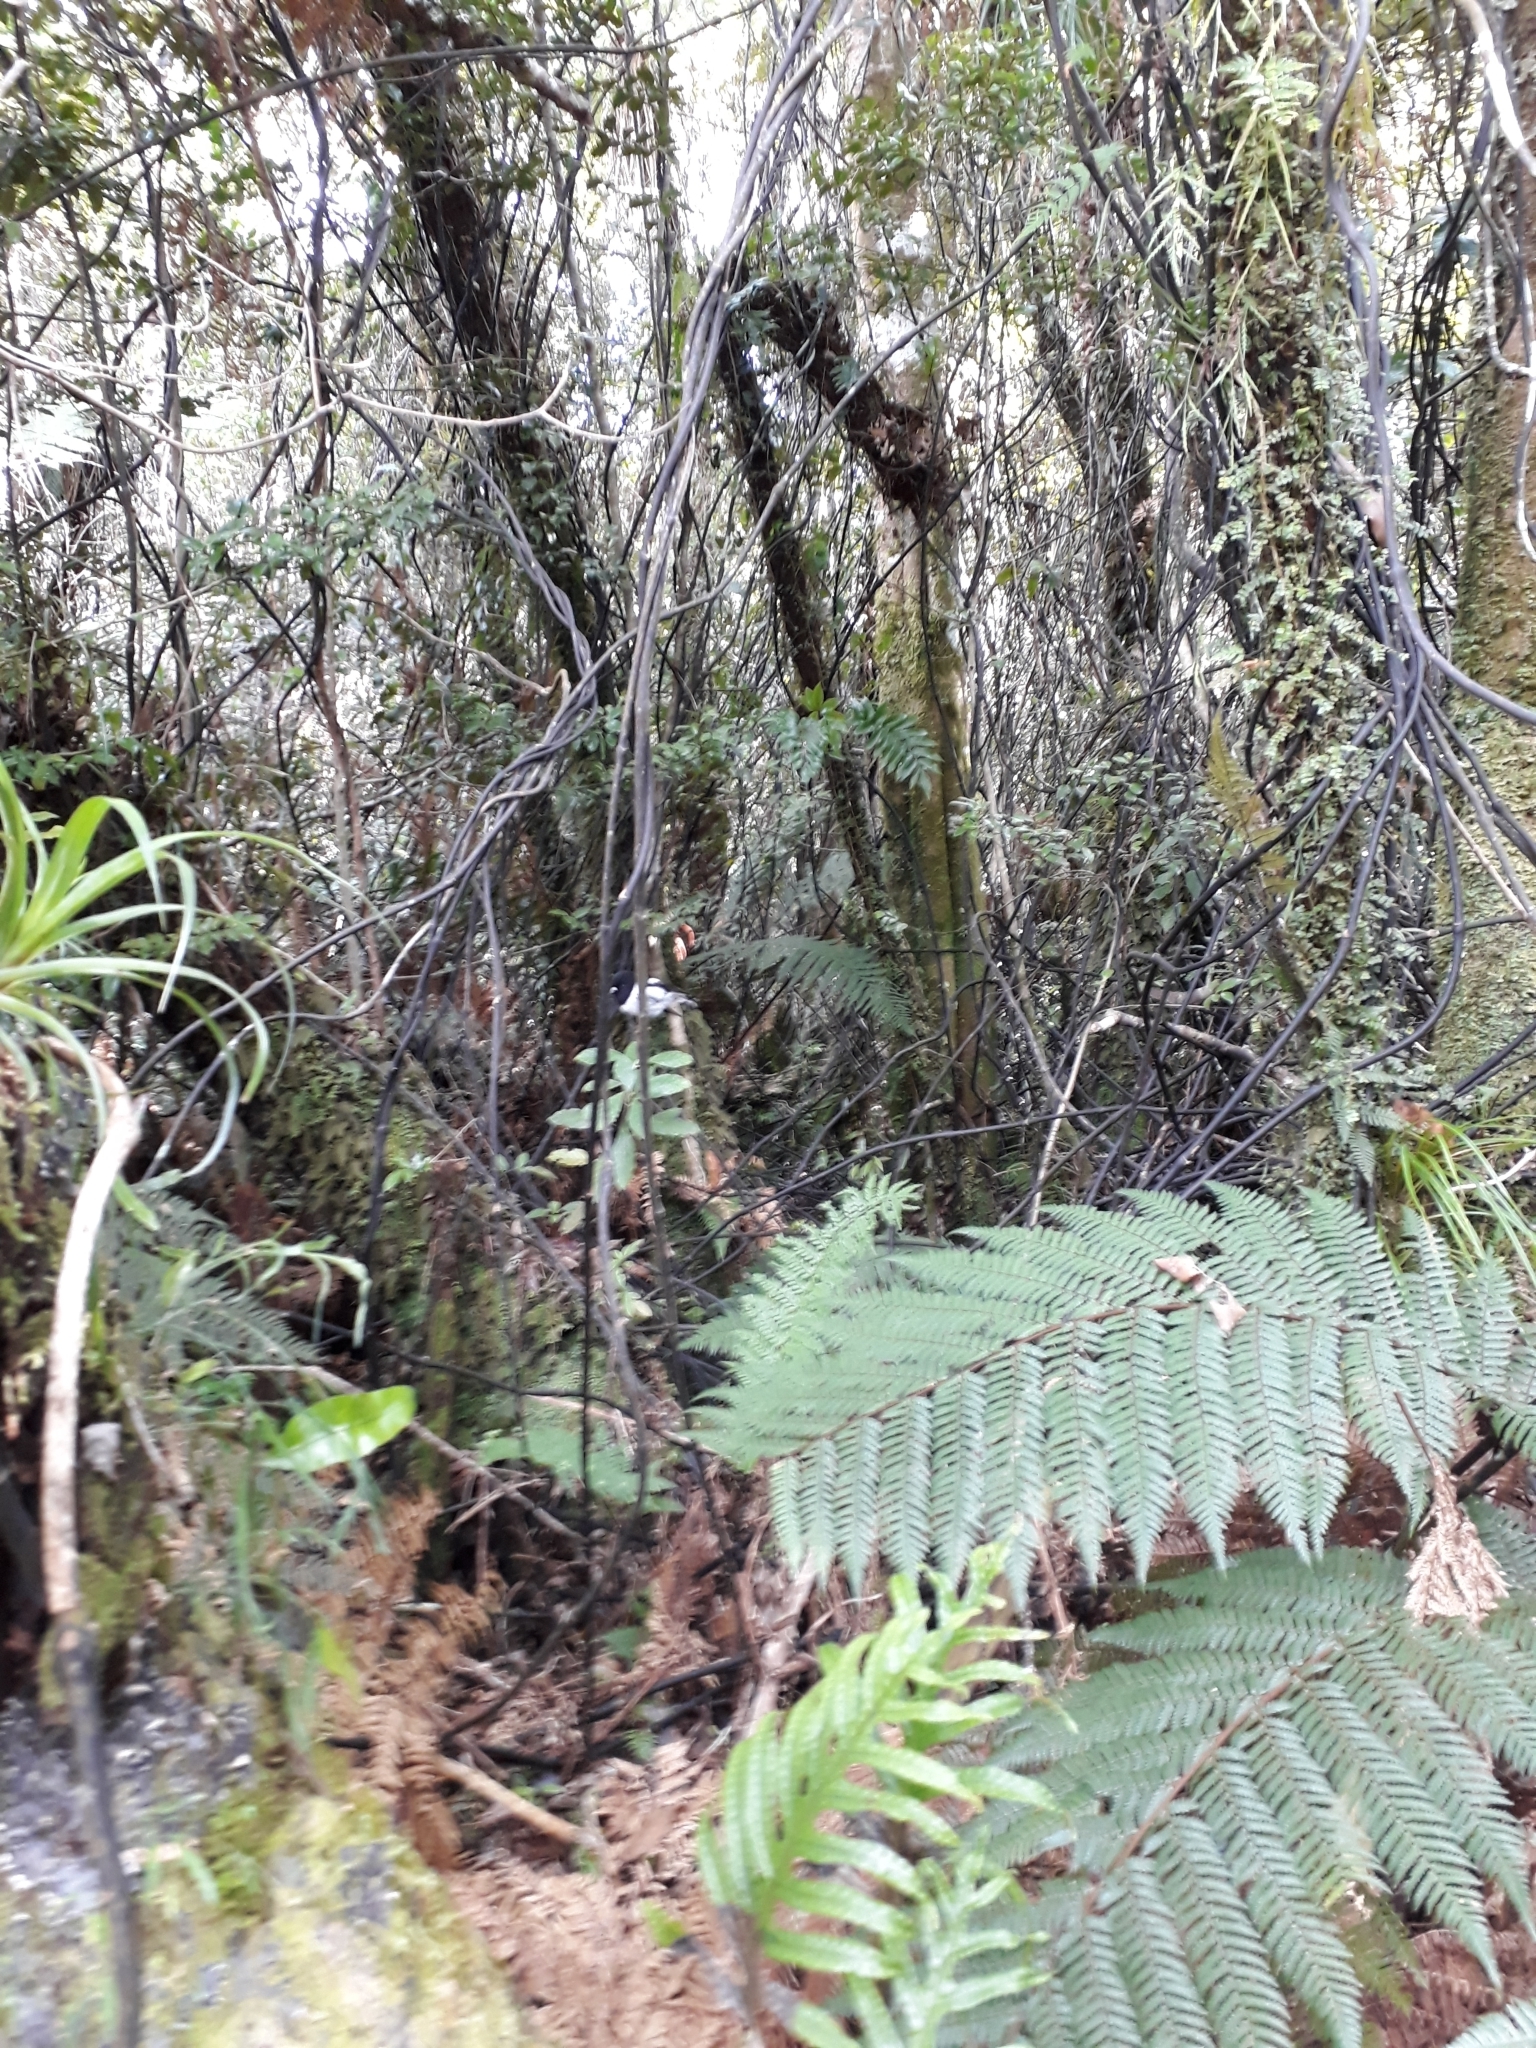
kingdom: Animalia
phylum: Chordata
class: Aves
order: Passeriformes
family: Petroicidae
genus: Petroica
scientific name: Petroica macrocephala
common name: Tomtit
